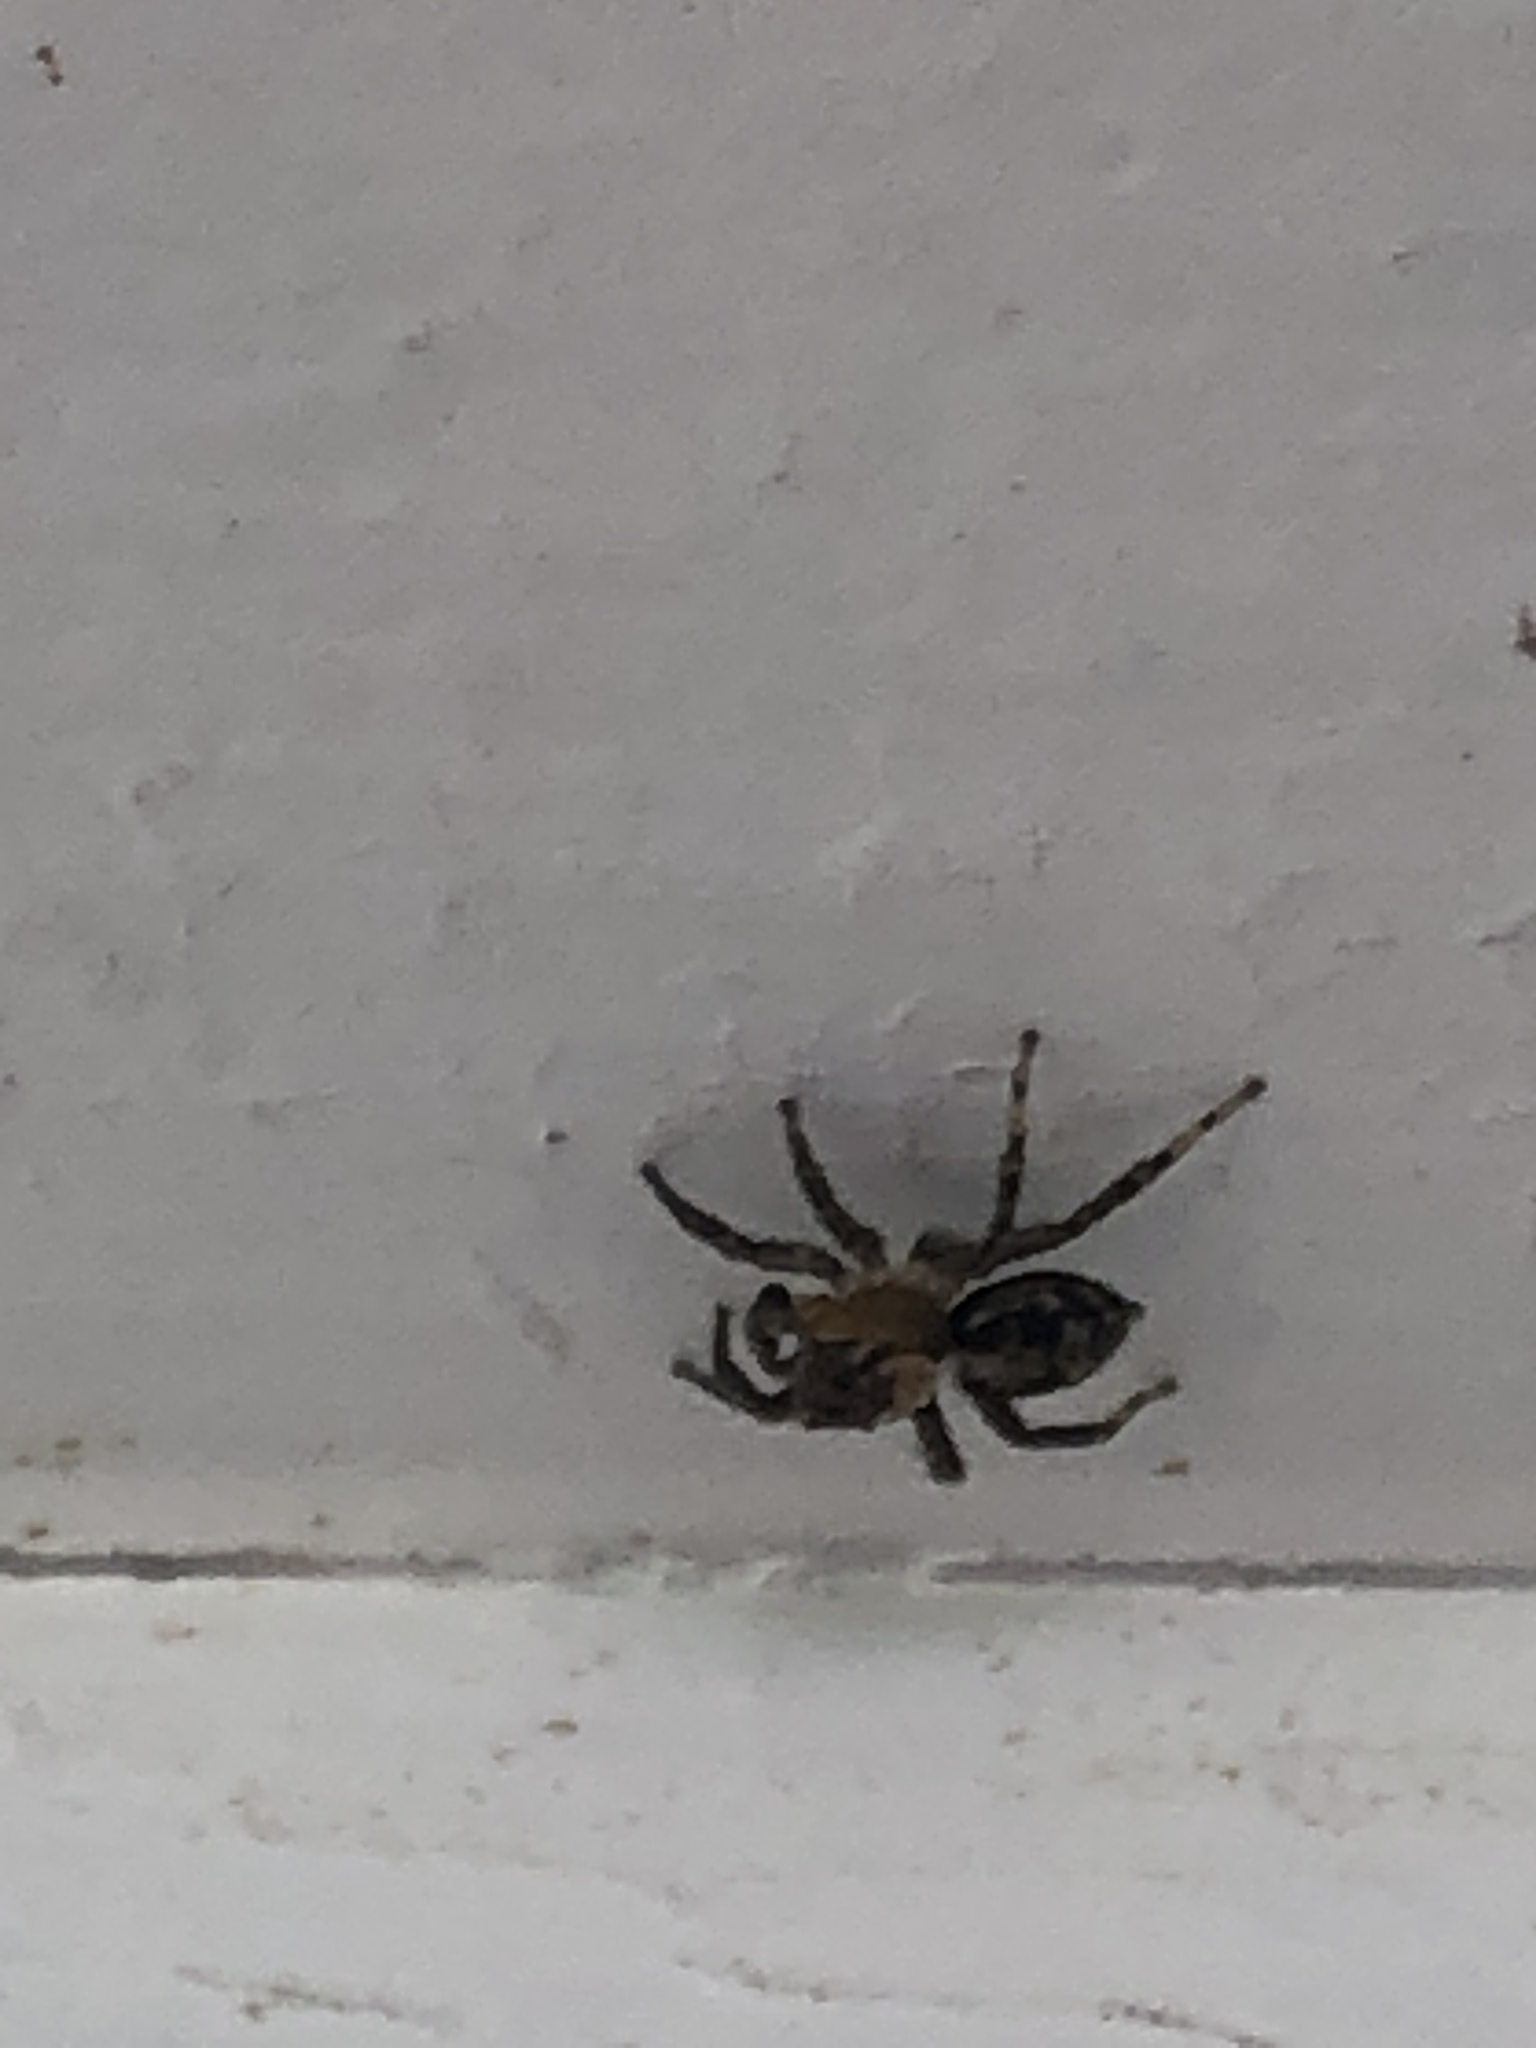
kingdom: Animalia
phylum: Arthropoda
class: Arachnida
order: Araneae
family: Salticidae
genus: Naphrys
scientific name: Naphrys pulex
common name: Flea jumping spider
